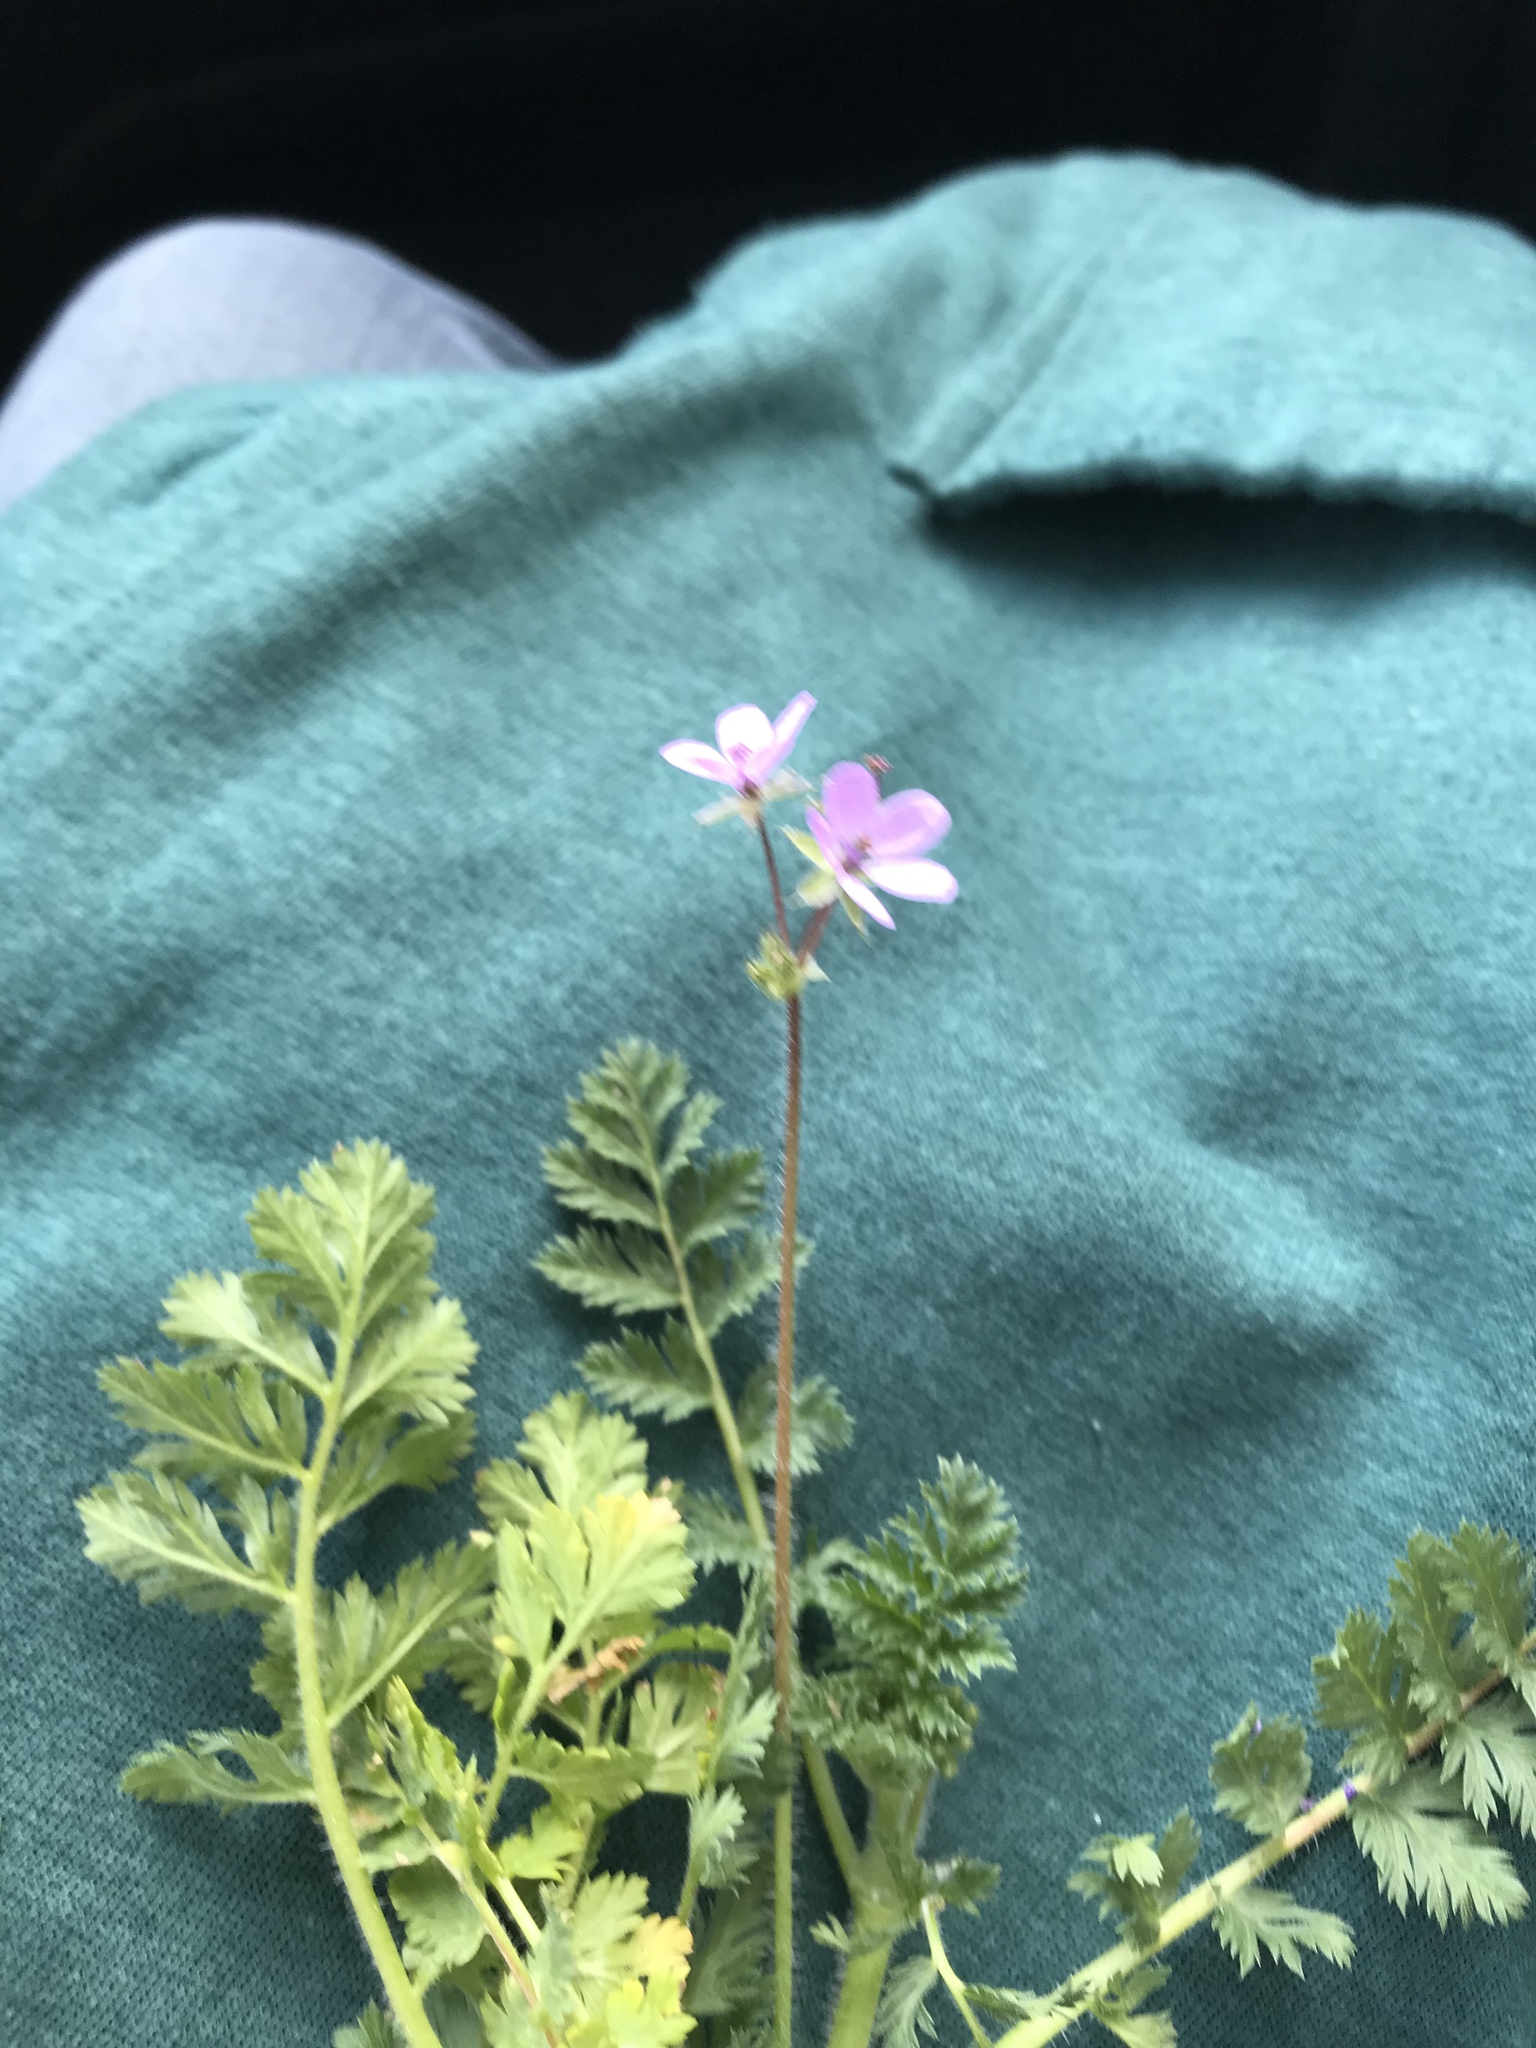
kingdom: Plantae
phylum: Tracheophyta
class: Magnoliopsida
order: Geraniales
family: Geraniaceae
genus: Erodium
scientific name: Erodium cicutarium
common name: Common stork's-bill
